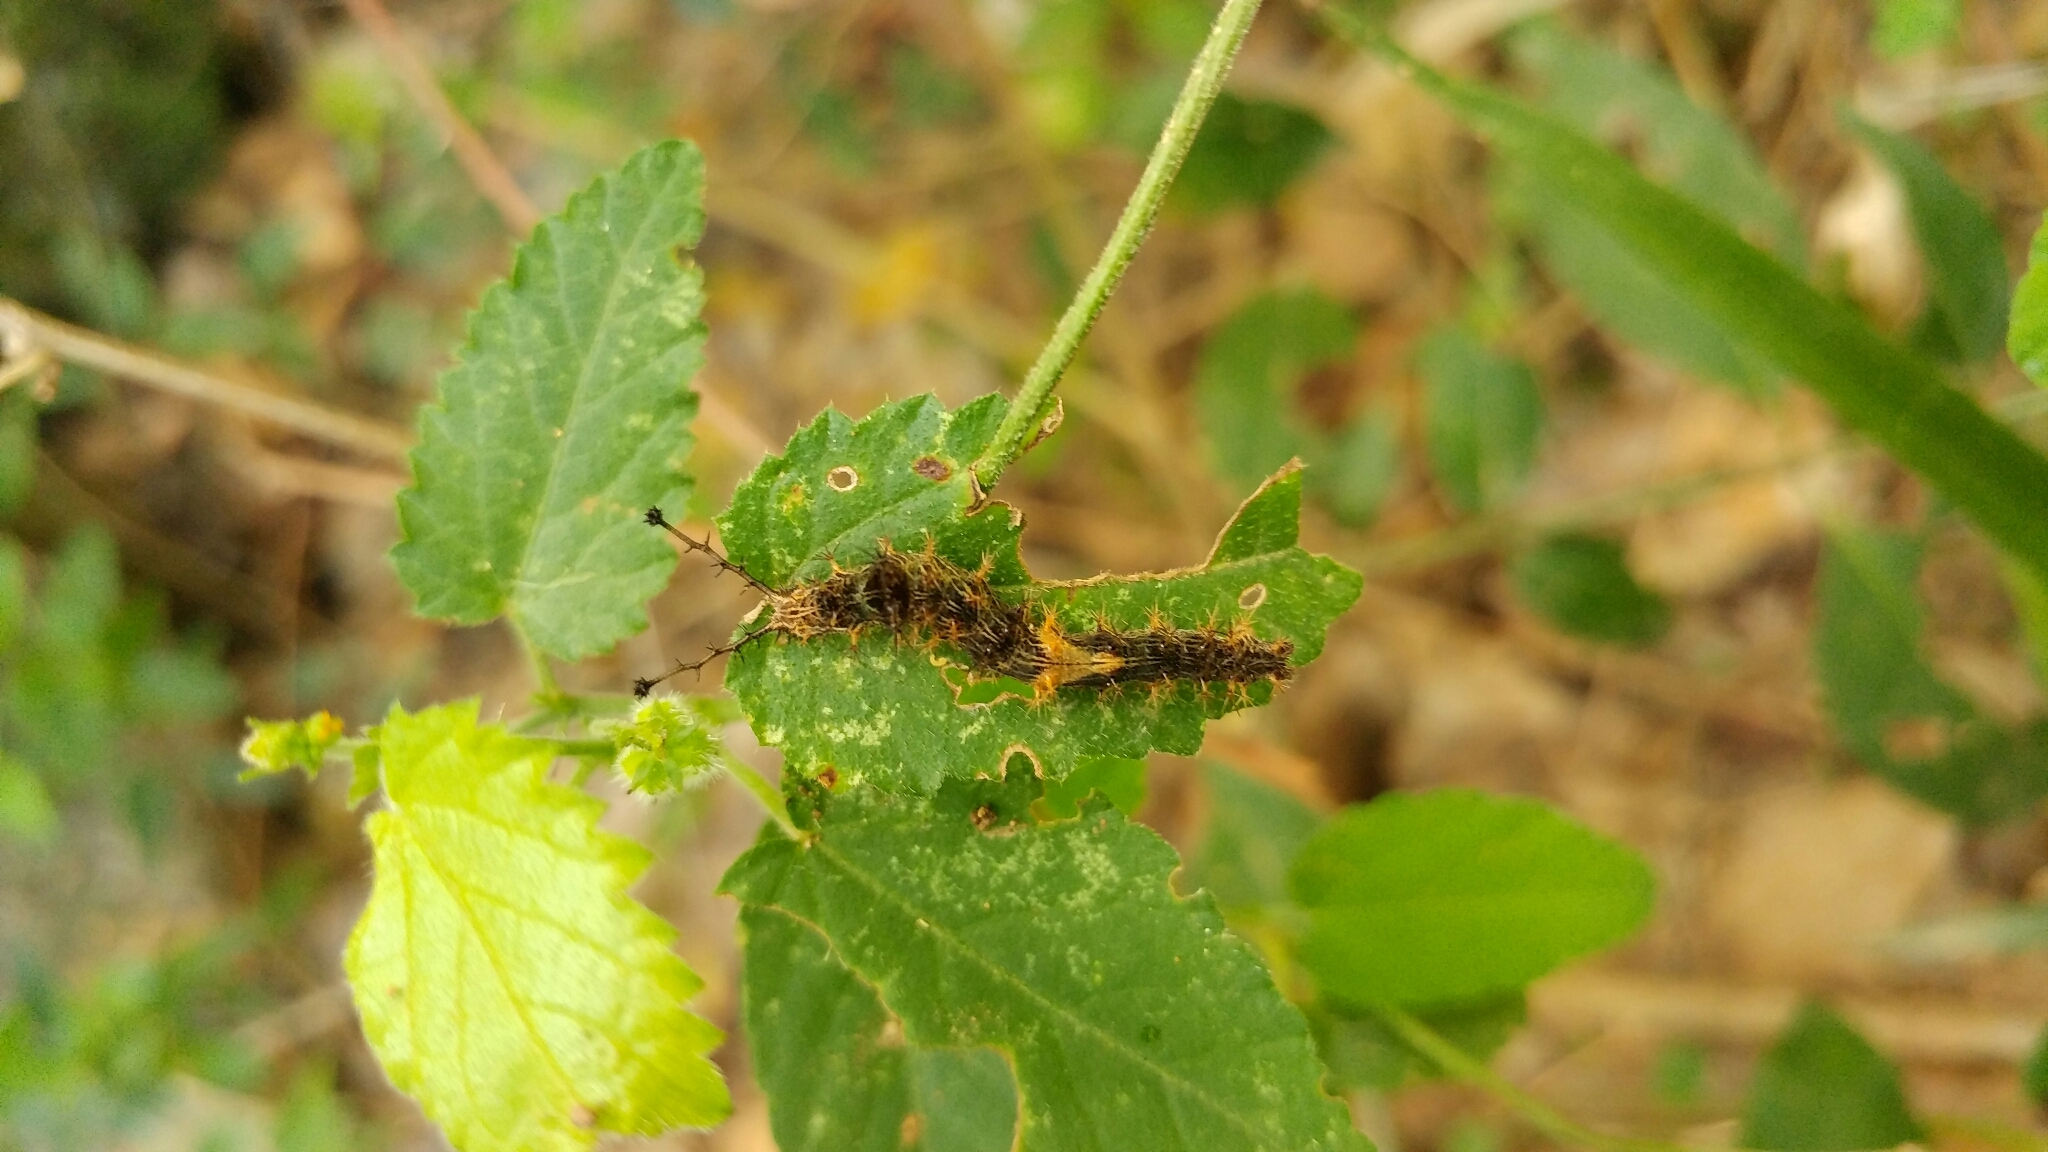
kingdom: Animalia
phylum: Arthropoda
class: Insecta
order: Lepidoptera
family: Nymphalidae
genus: Biblis
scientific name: Biblis aganisa
